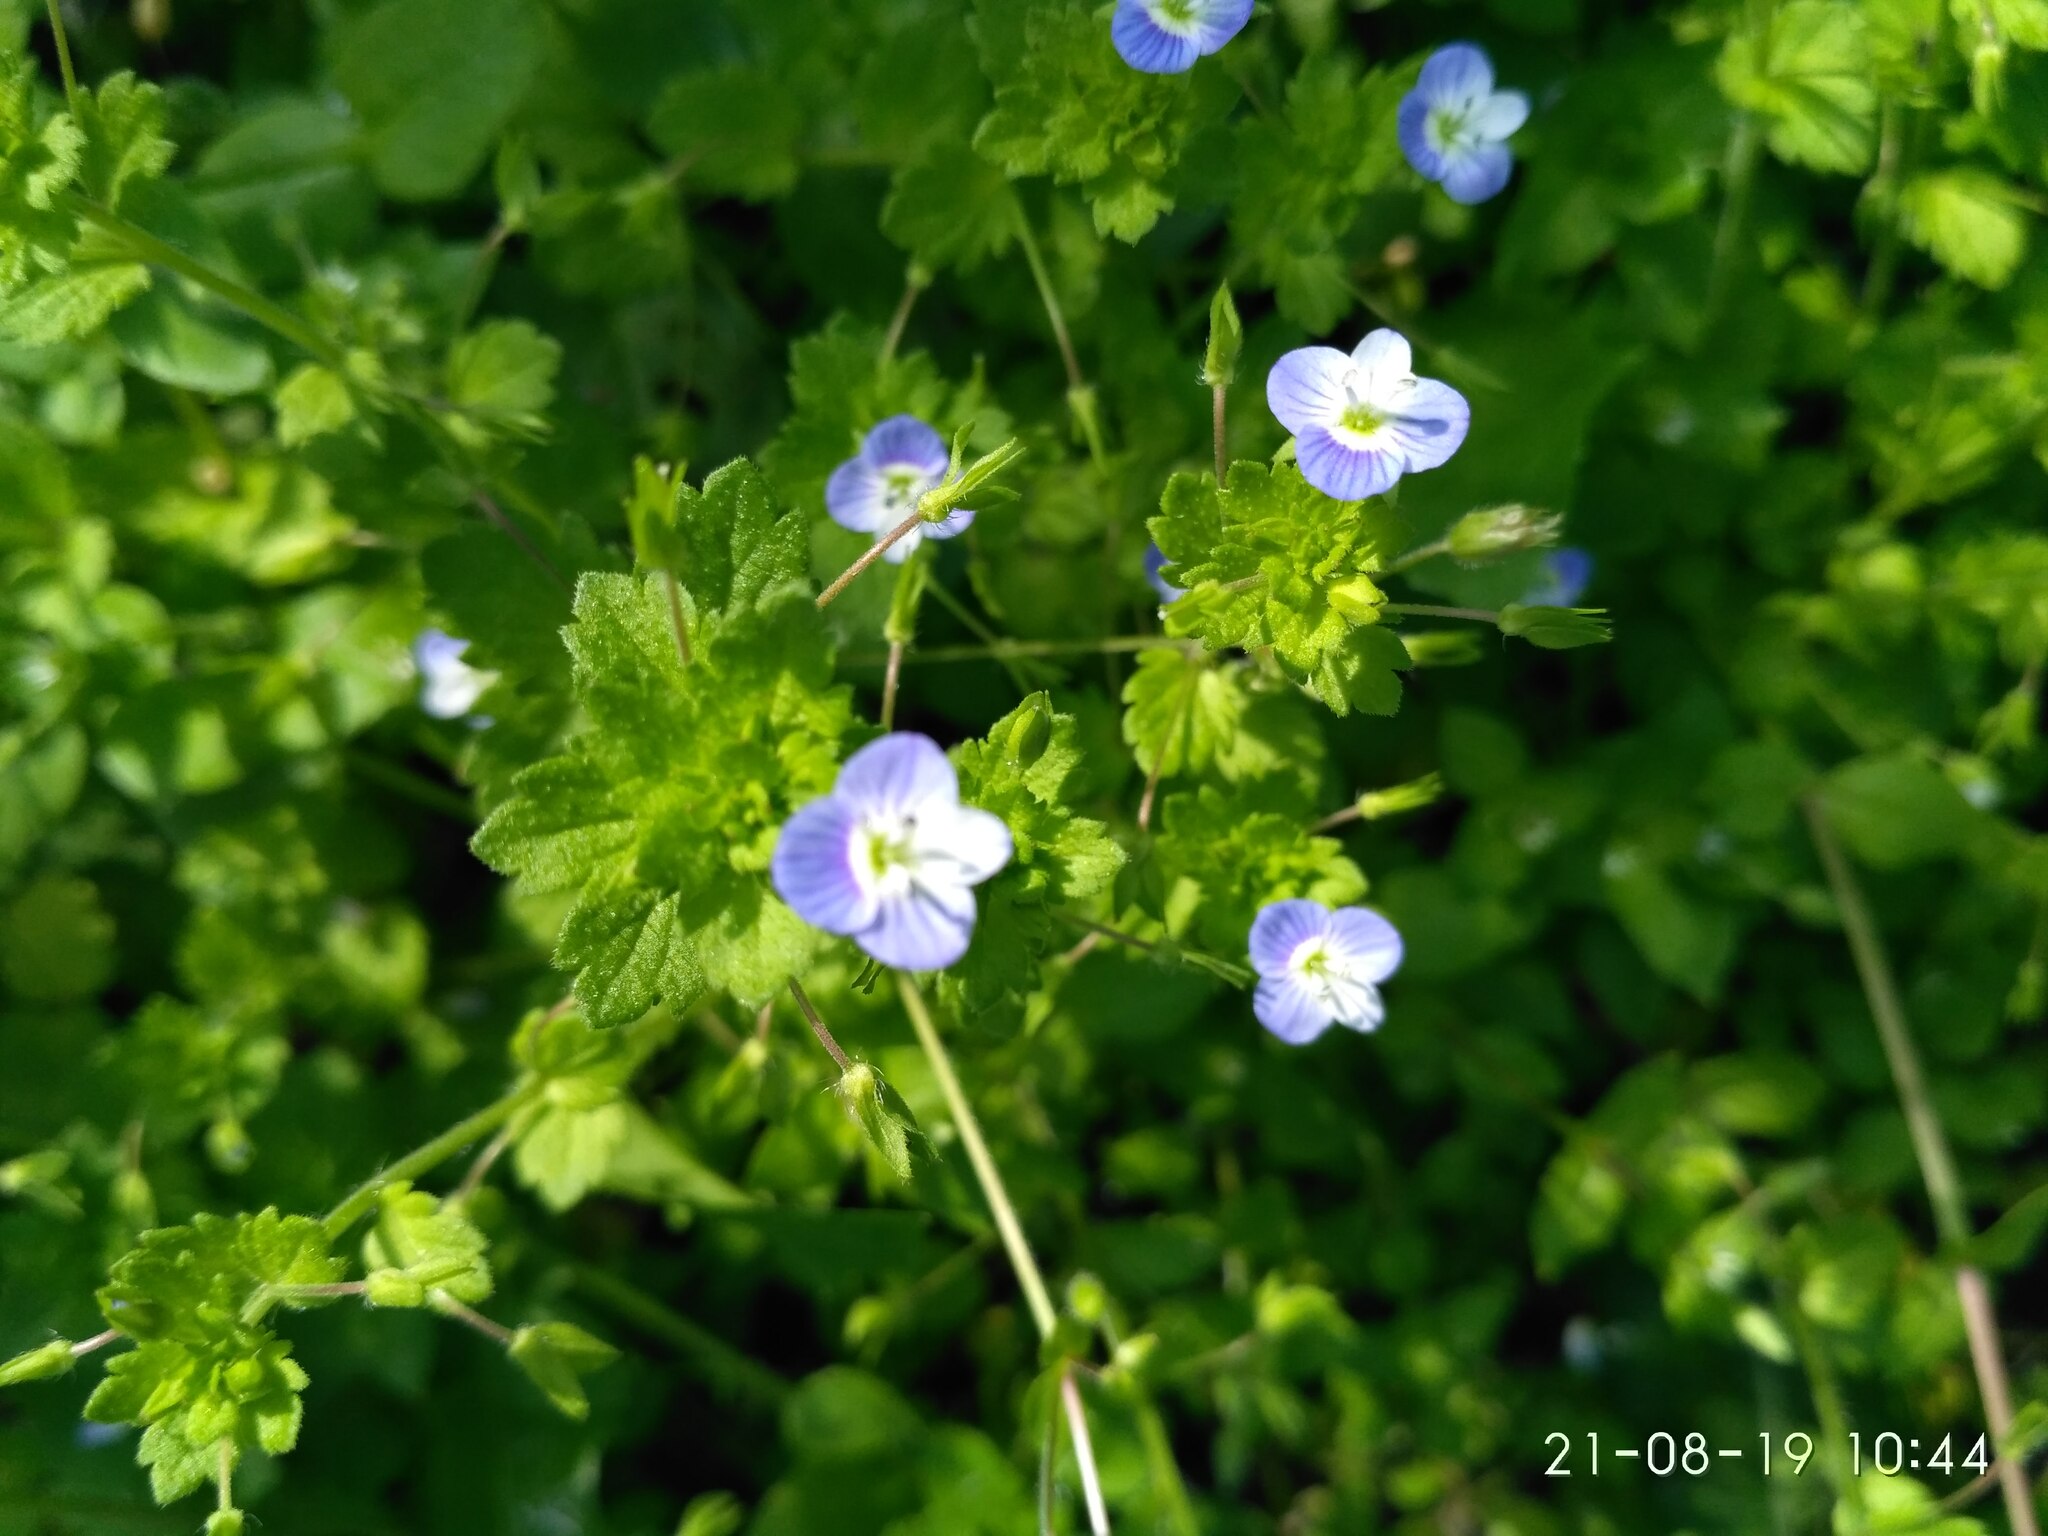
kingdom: Plantae
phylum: Tracheophyta
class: Magnoliopsida
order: Lamiales
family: Plantaginaceae
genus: Veronica
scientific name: Veronica persica
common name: Common field-speedwell
